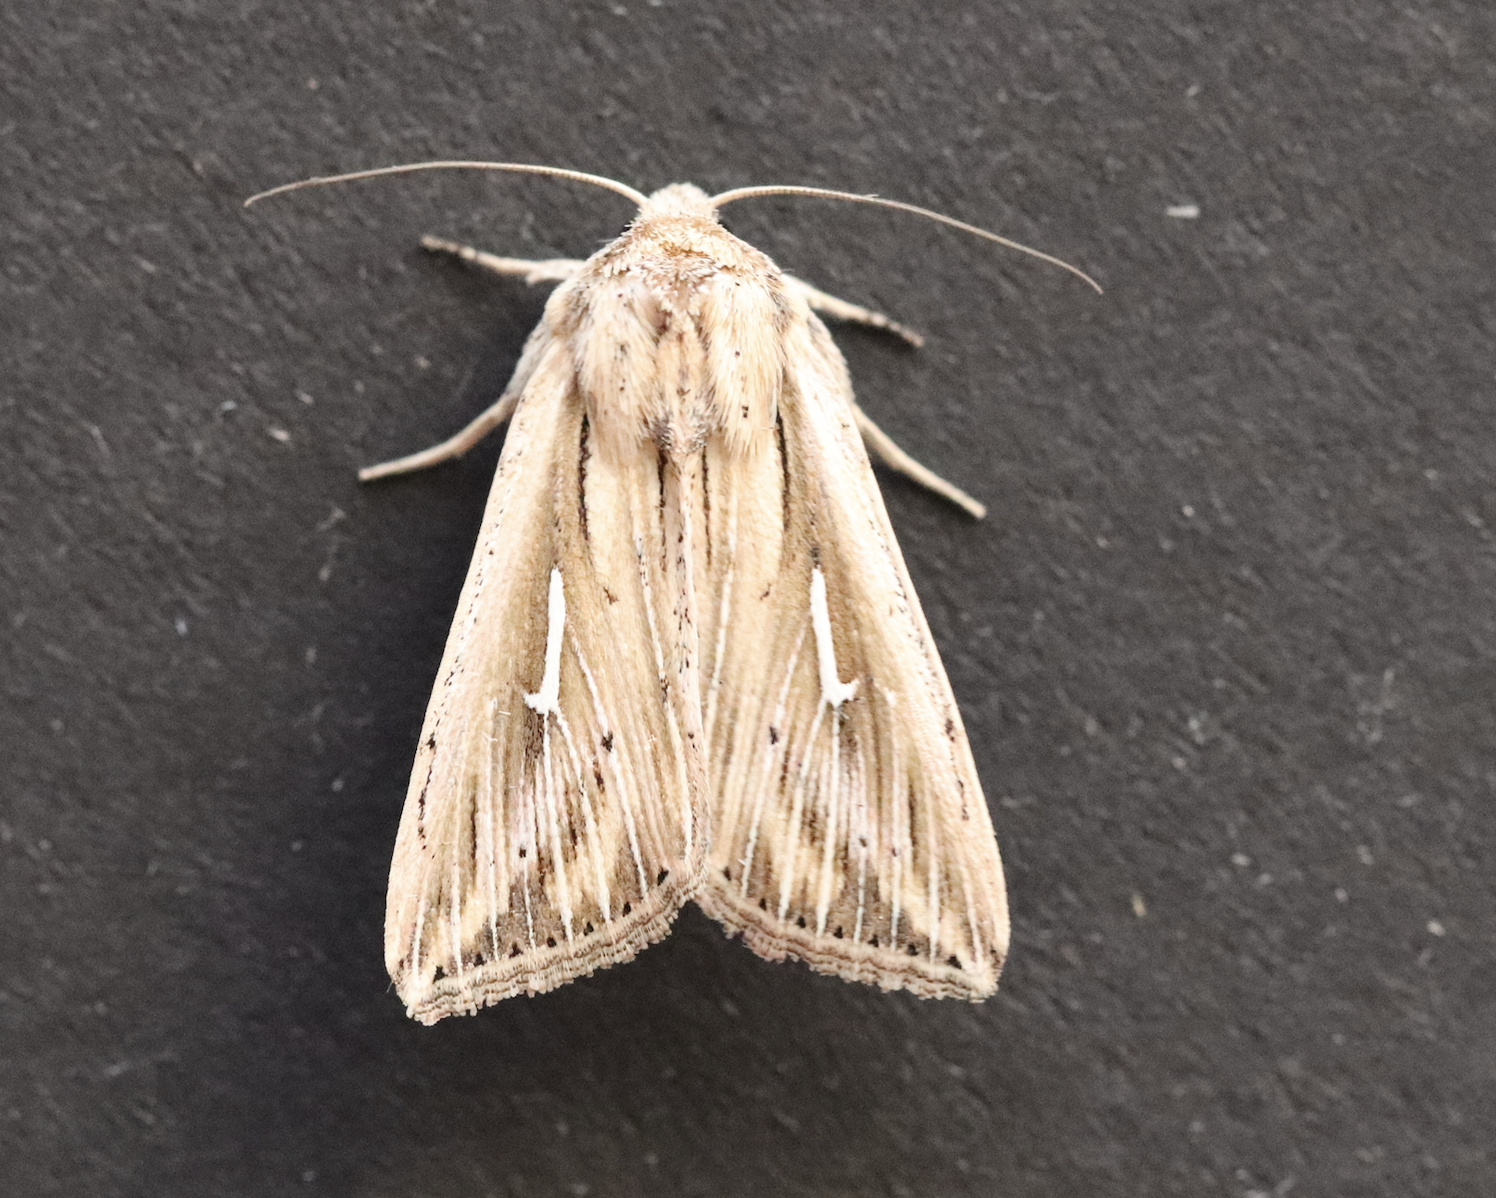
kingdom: Animalia
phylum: Arthropoda
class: Insecta
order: Lepidoptera
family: Noctuidae
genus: Mythimna
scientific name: Mythimna l-album
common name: L-album wainscot
